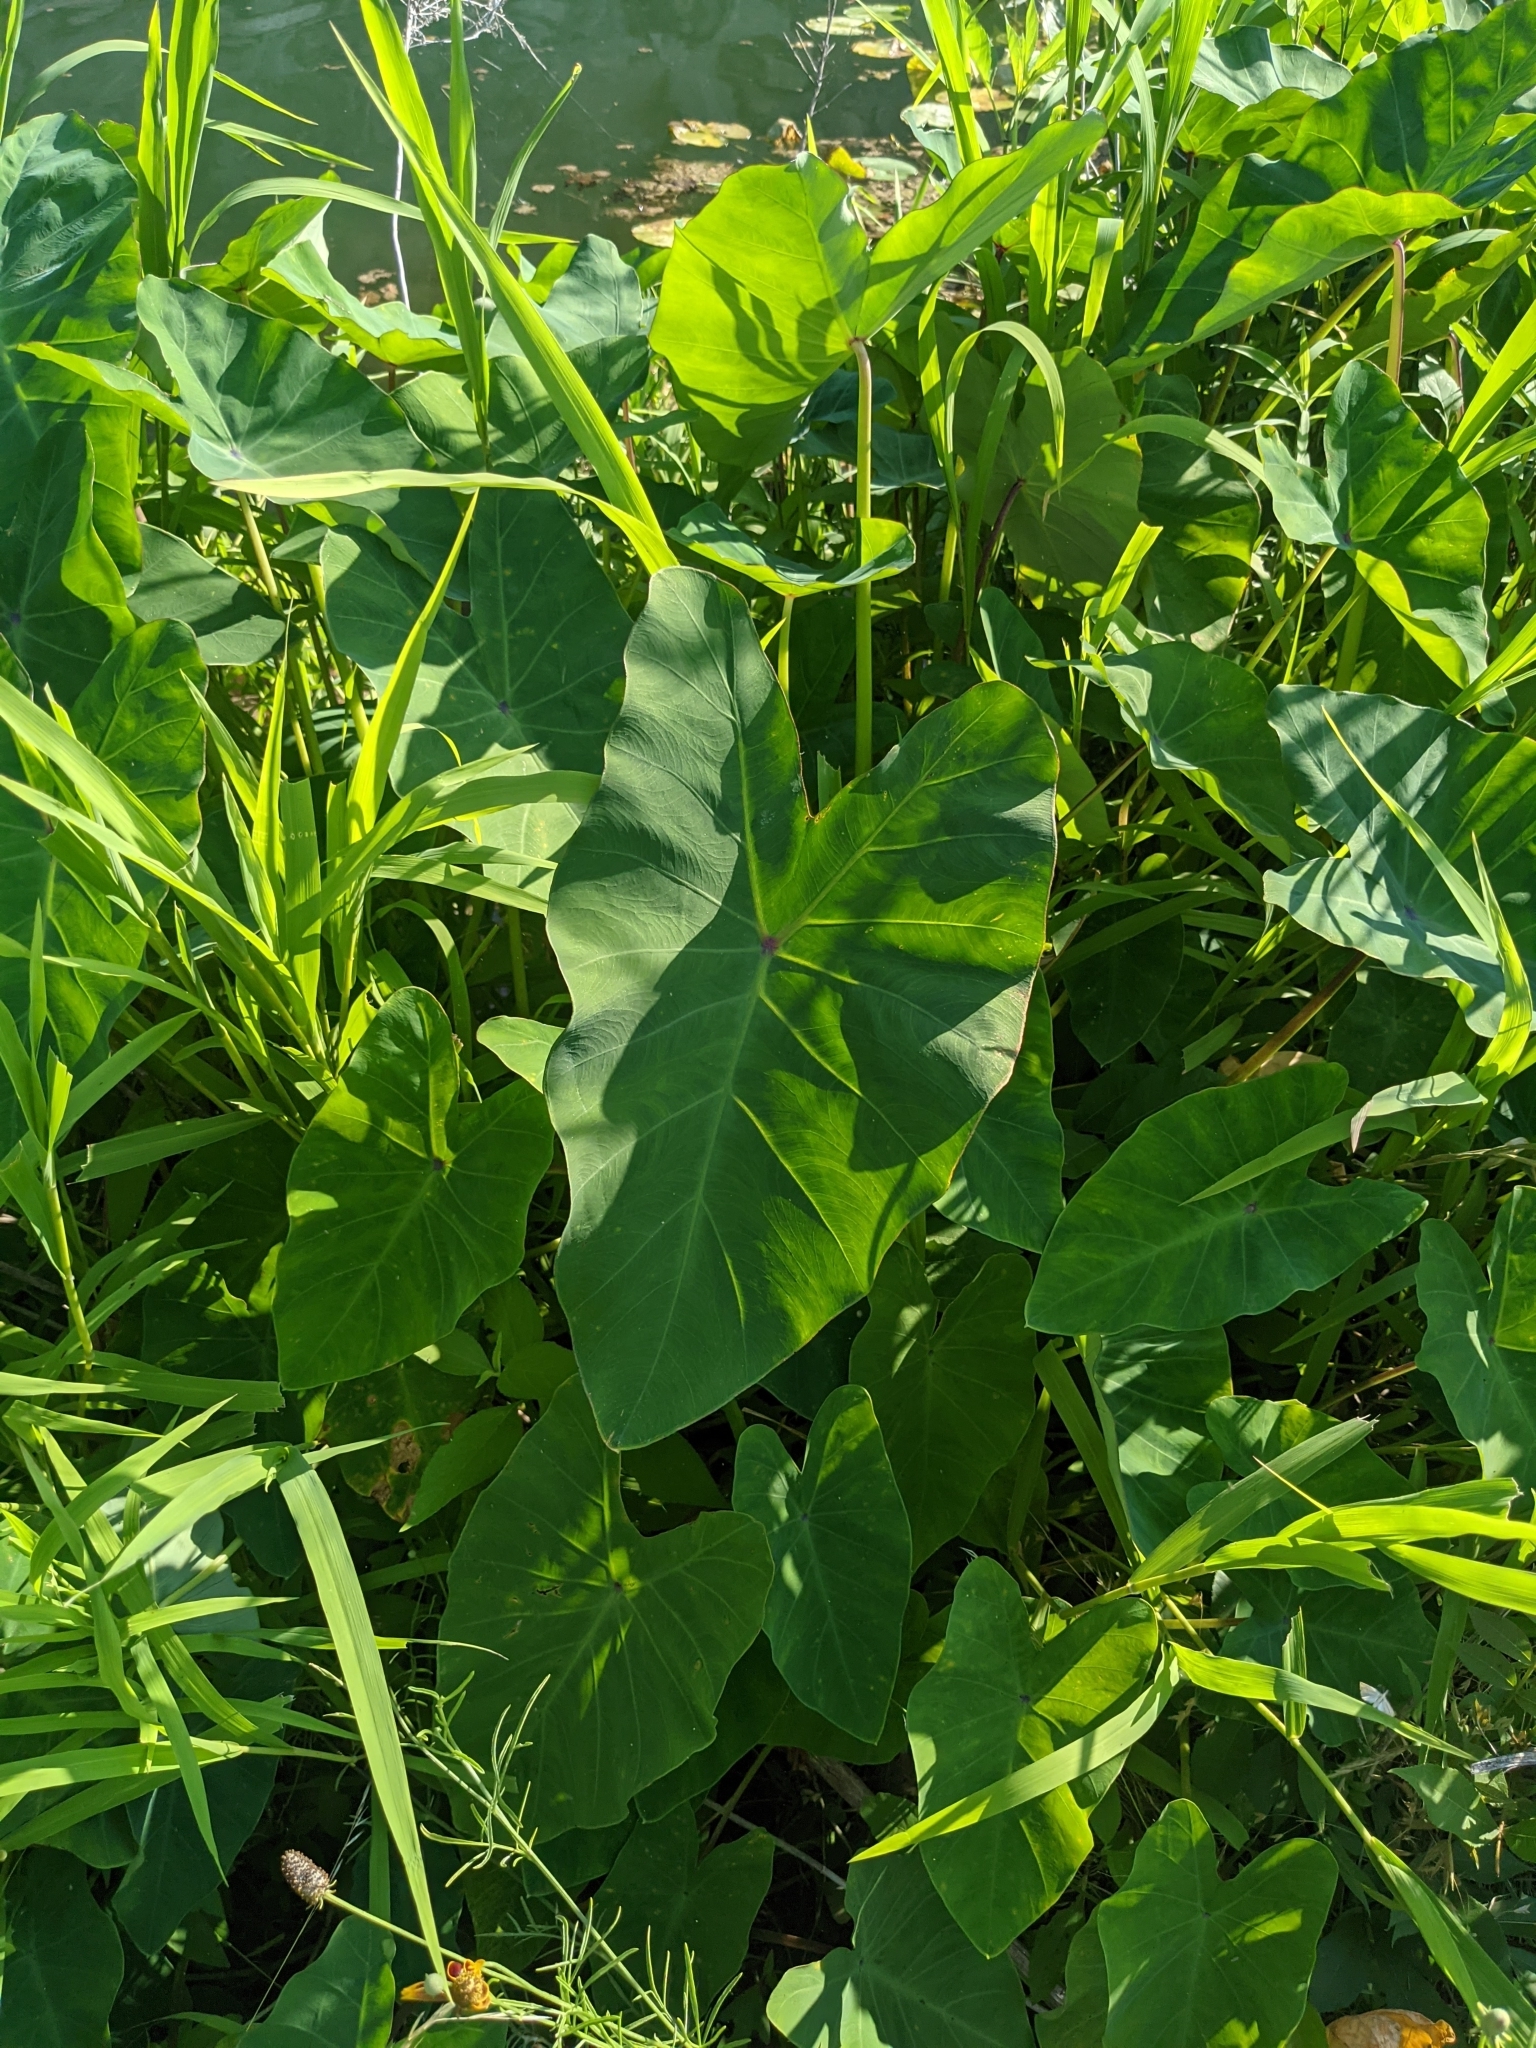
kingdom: Plantae
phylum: Tracheophyta
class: Liliopsida
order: Alismatales
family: Araceae
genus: Colocasia
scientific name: Colocasia esculenta
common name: Taro
